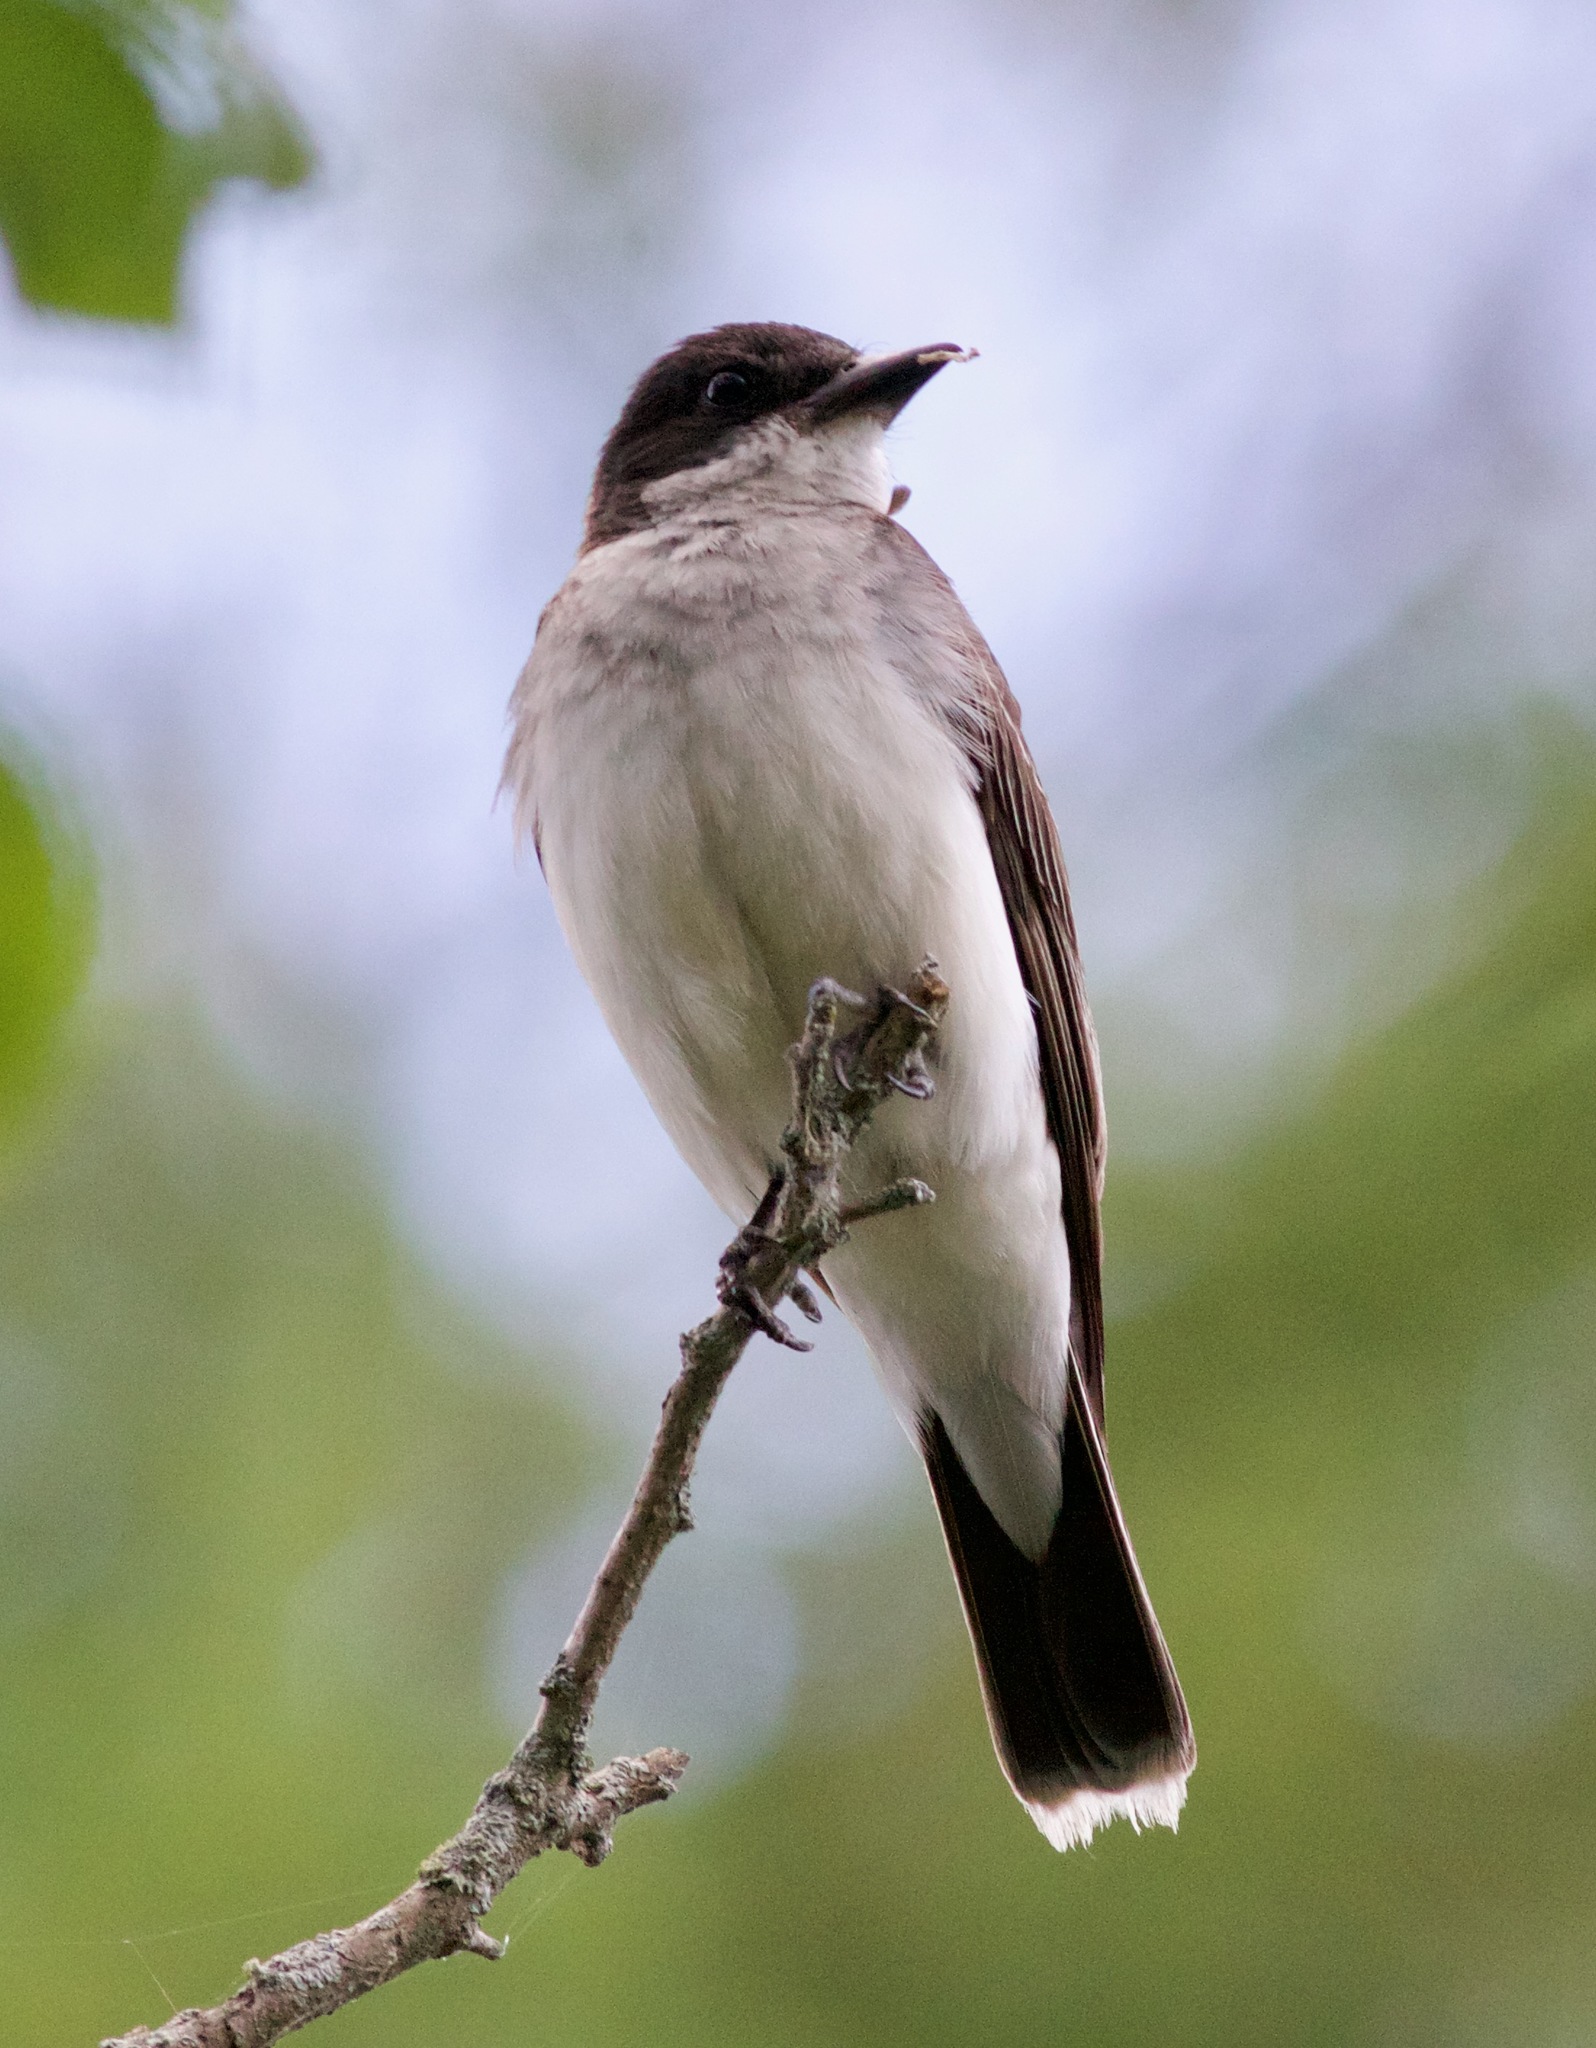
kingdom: Animalia
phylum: Chordata
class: Aves
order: Passeriformes
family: Tyrannidae
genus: Tyrannus
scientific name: Tyrannus tyrannus
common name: Eastern kingbird
